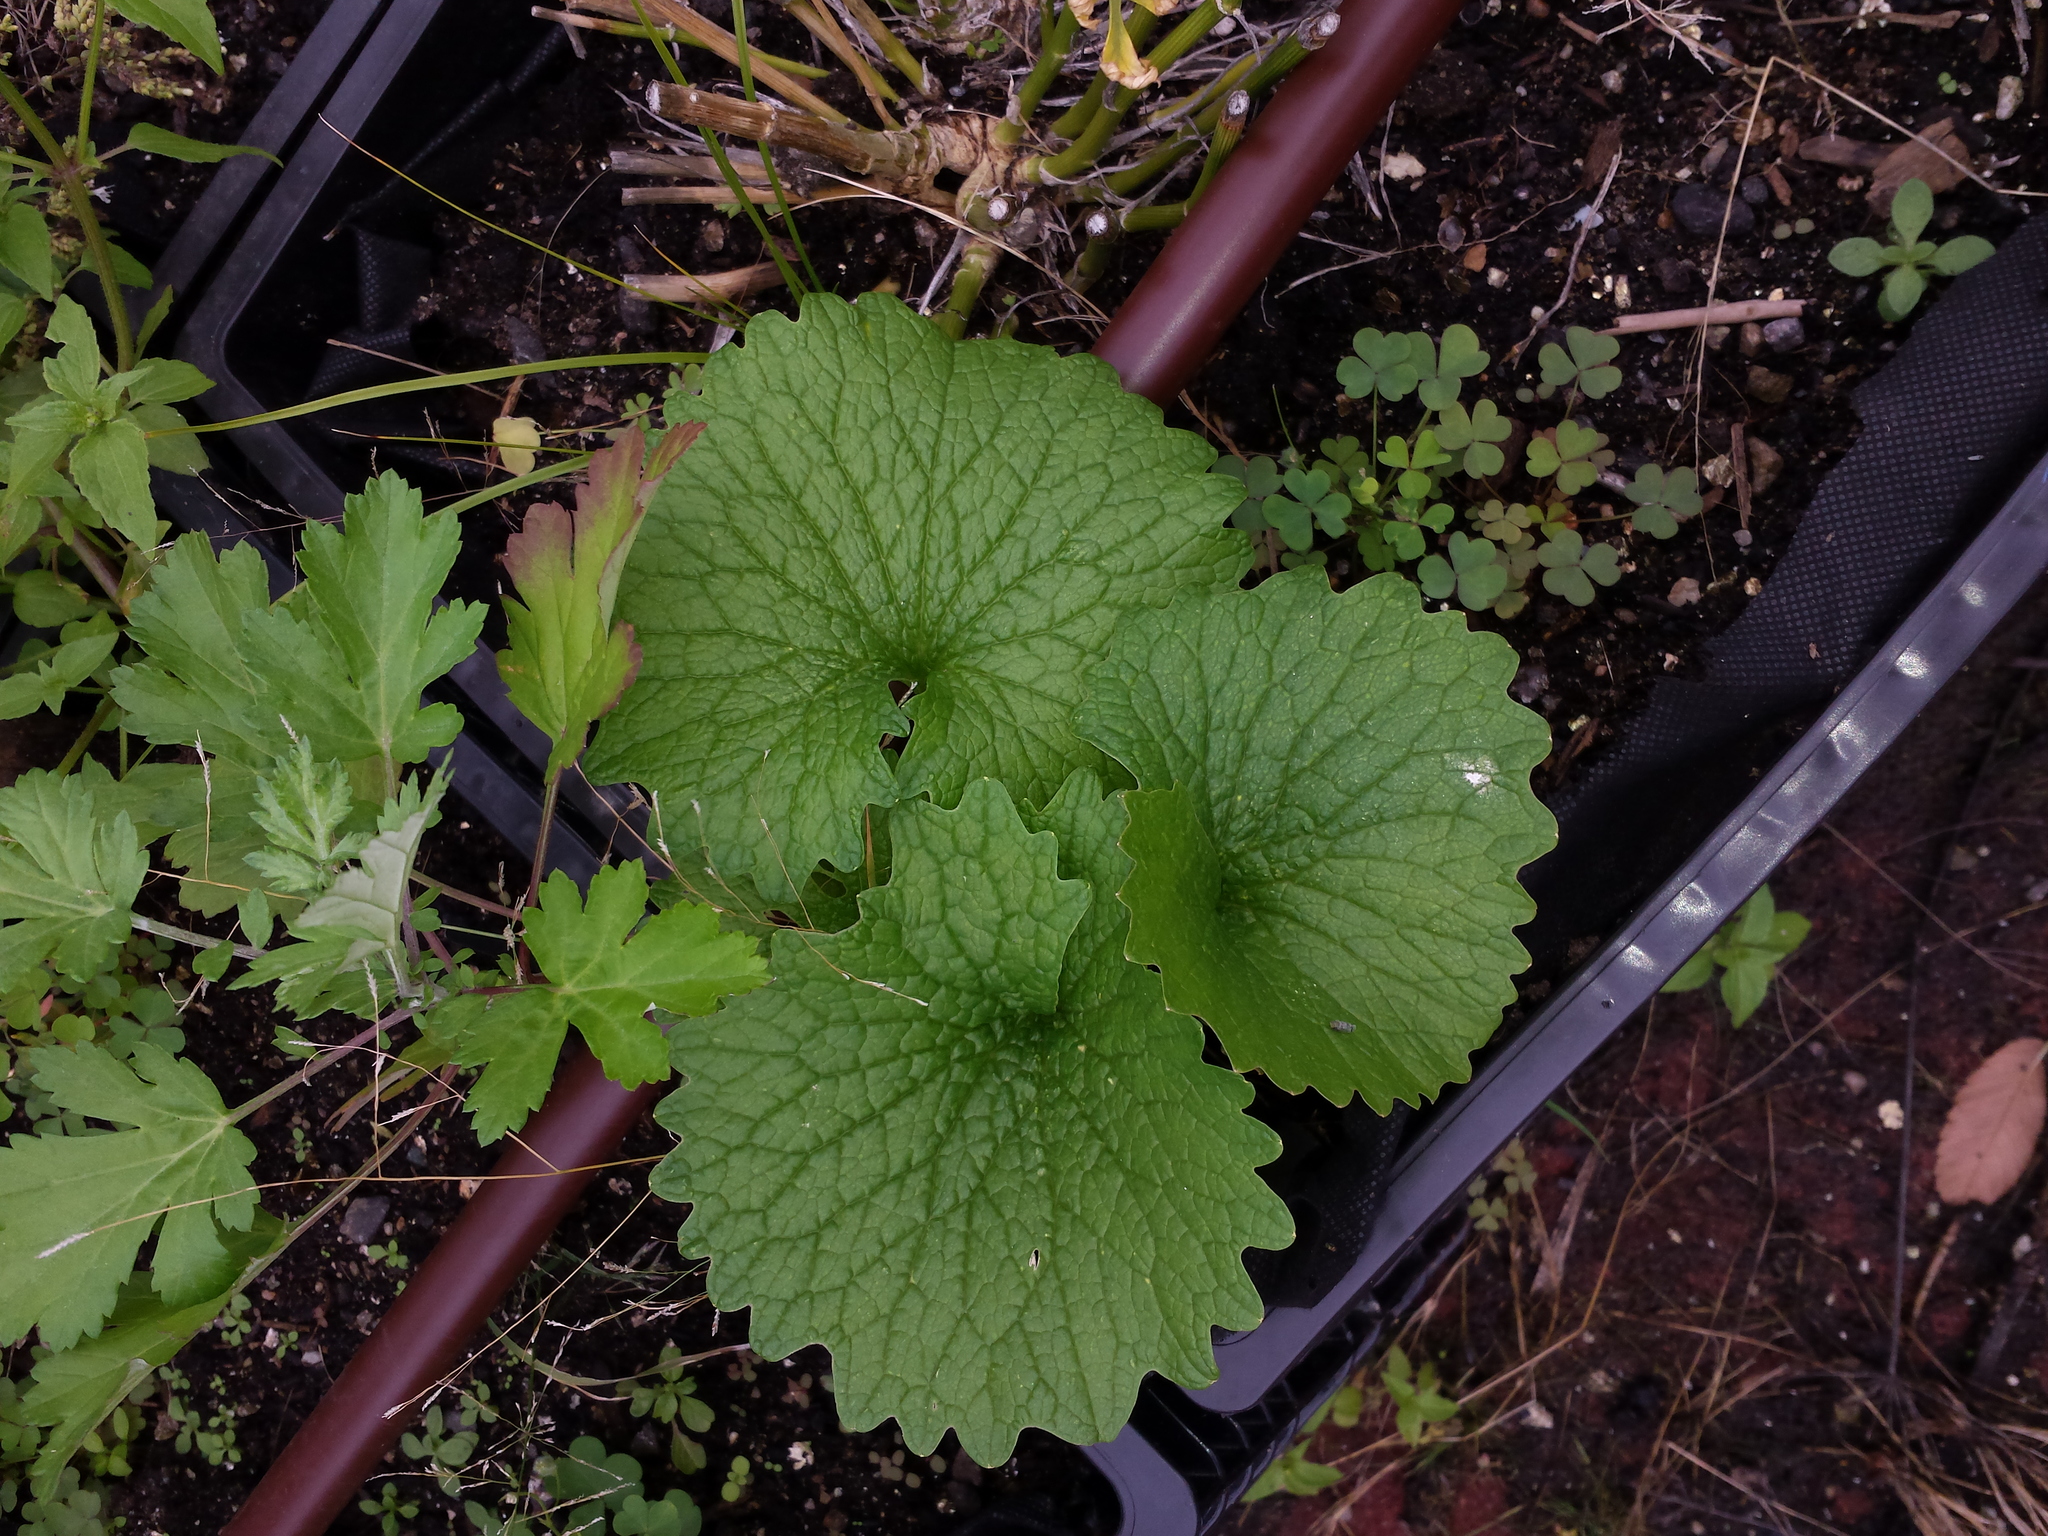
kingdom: Plantae
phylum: Tracheophyta
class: Magnoliopsida
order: Brassicales
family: Brassicaceae
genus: Alliaria
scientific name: Alliaria petiolata
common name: Garlic mustard
